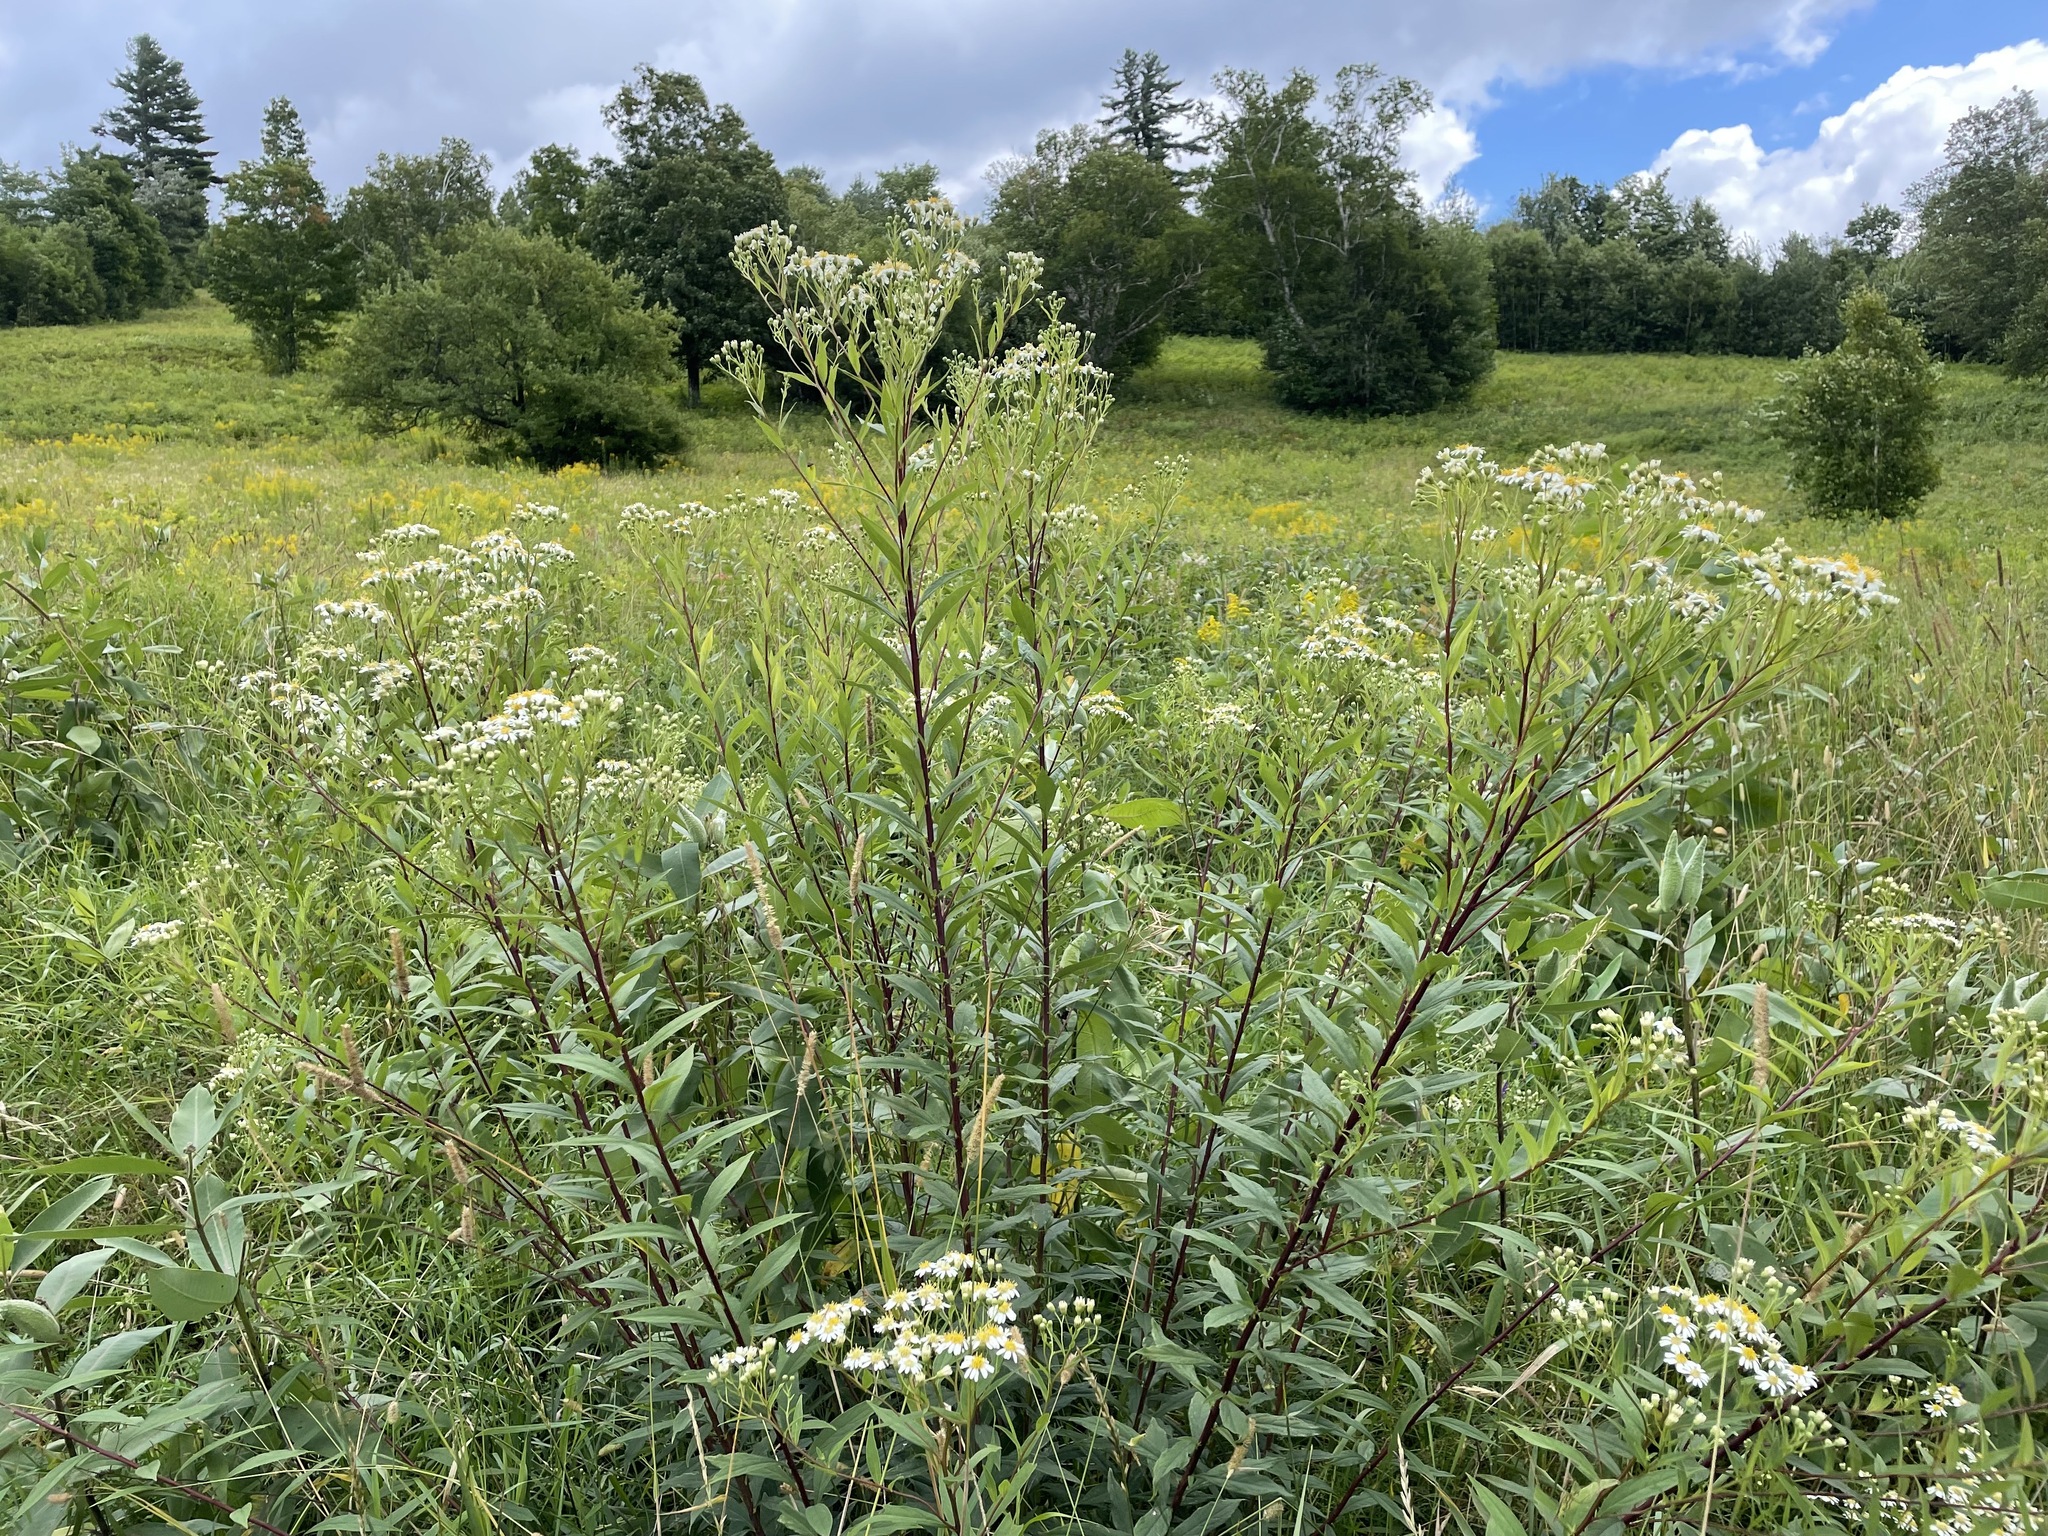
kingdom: Plantae
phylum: Tracheophyta
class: Magnoliopsida
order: Asterales
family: Asteraceae
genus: Doellingeria
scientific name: Doellingeria umbellata
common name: Flat-top white aster
